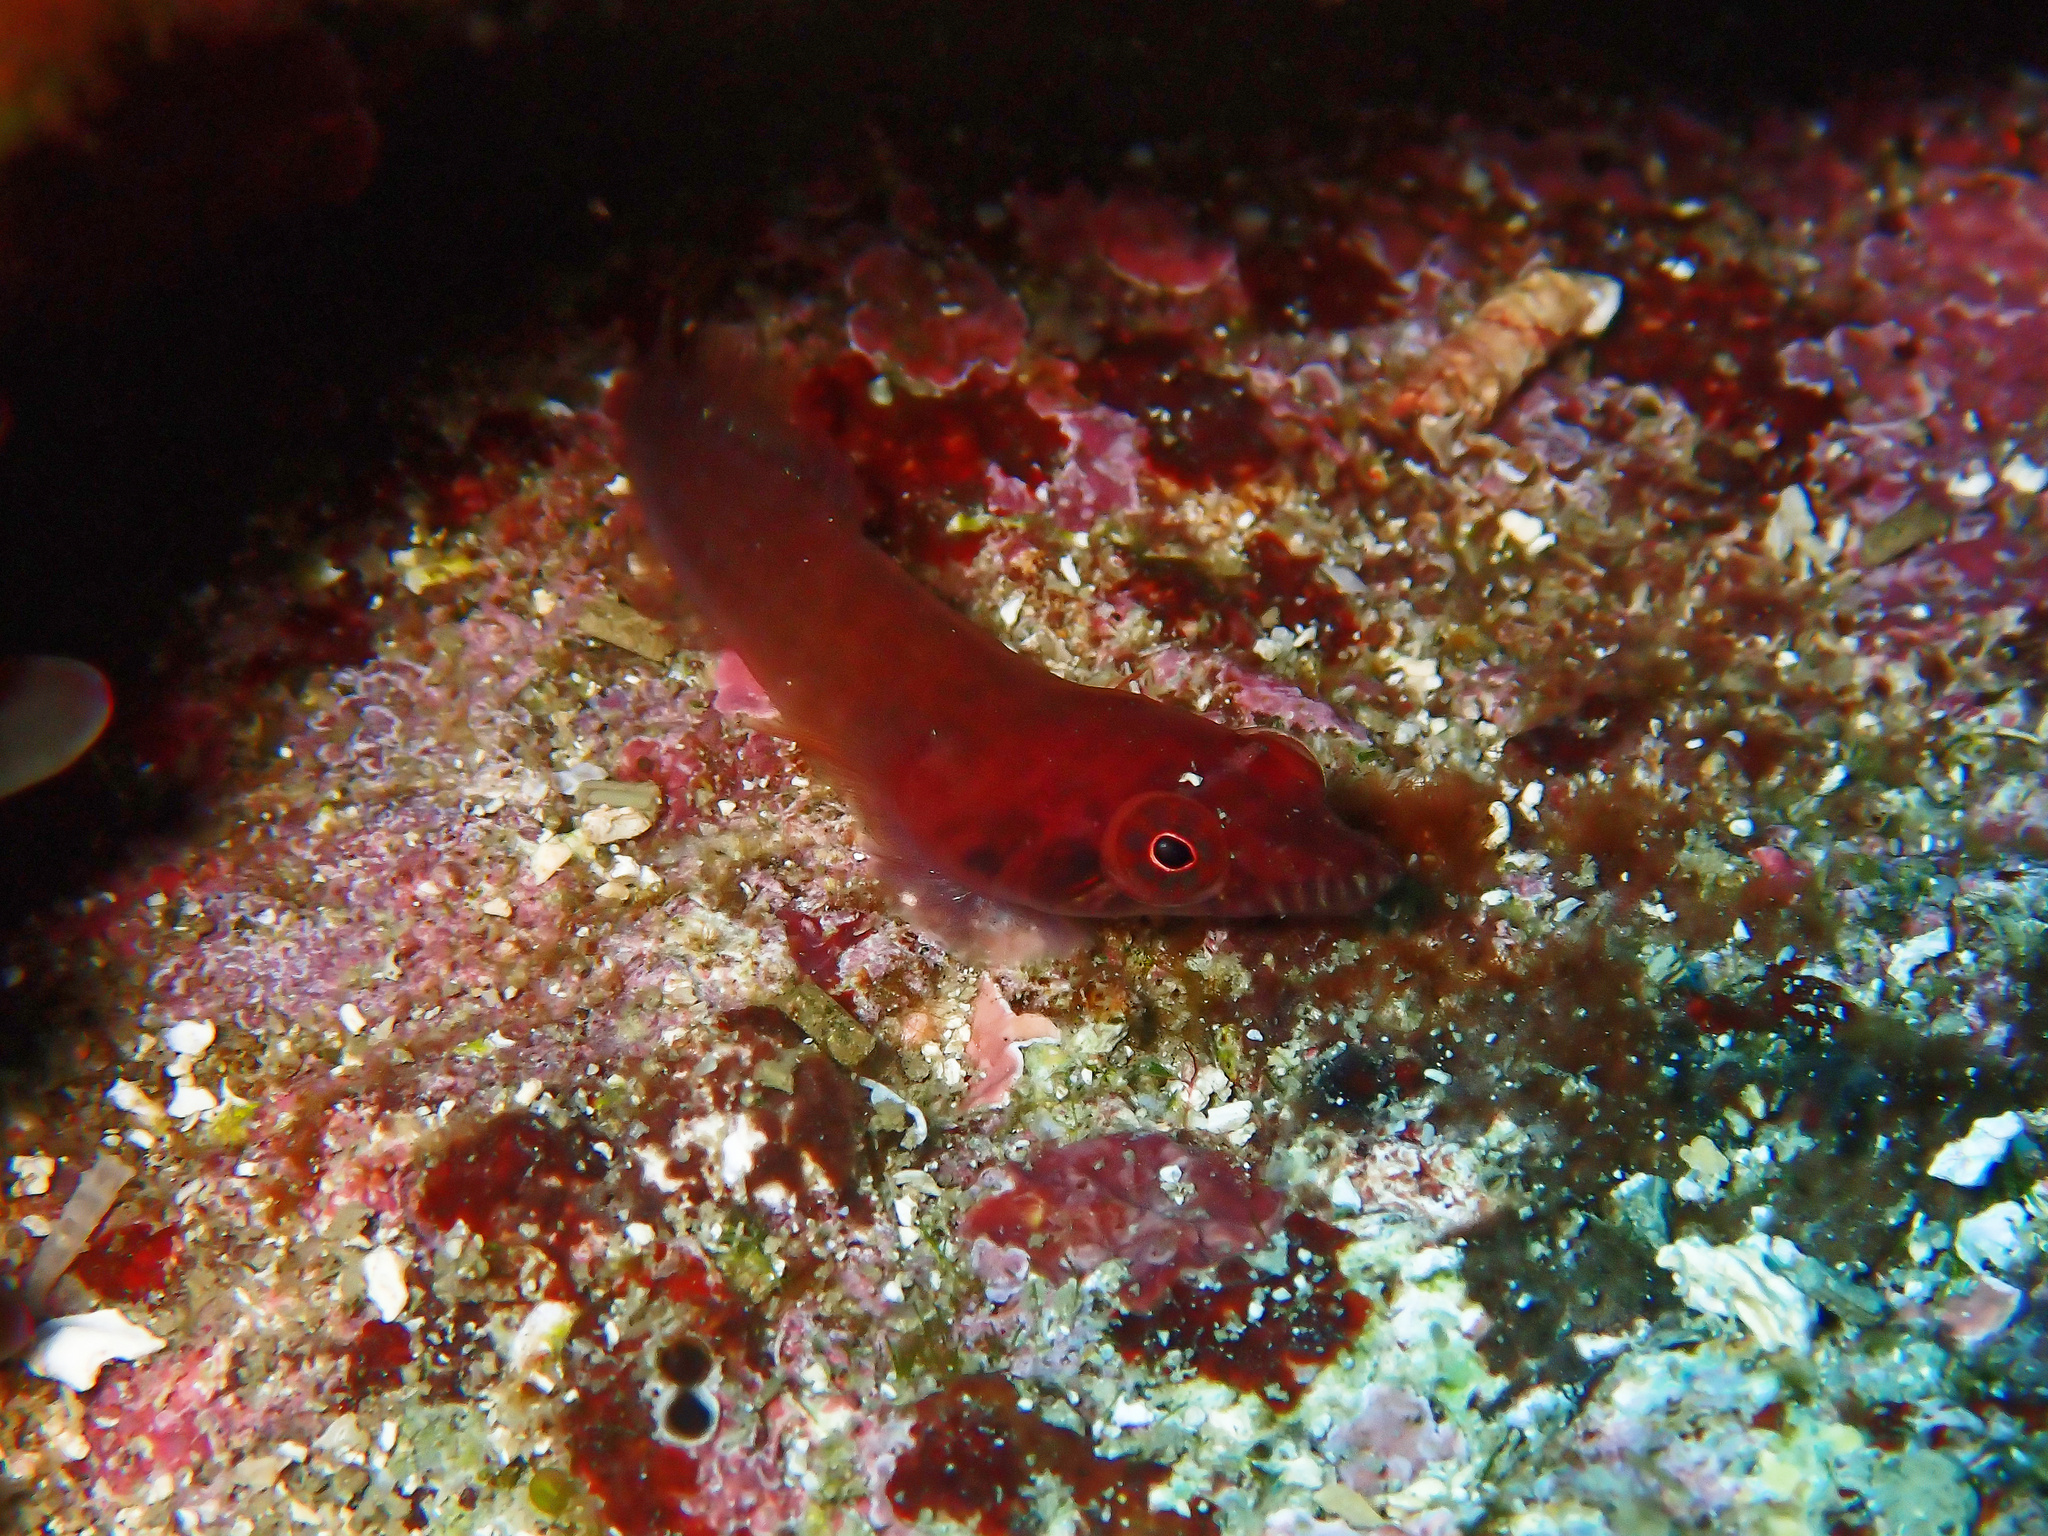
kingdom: Animalia
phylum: Chordata
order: Gobiesociformes
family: Gobiesocidae
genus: Lepadogaster
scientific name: Lepadogaster candolii
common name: Connemarra clingfish
